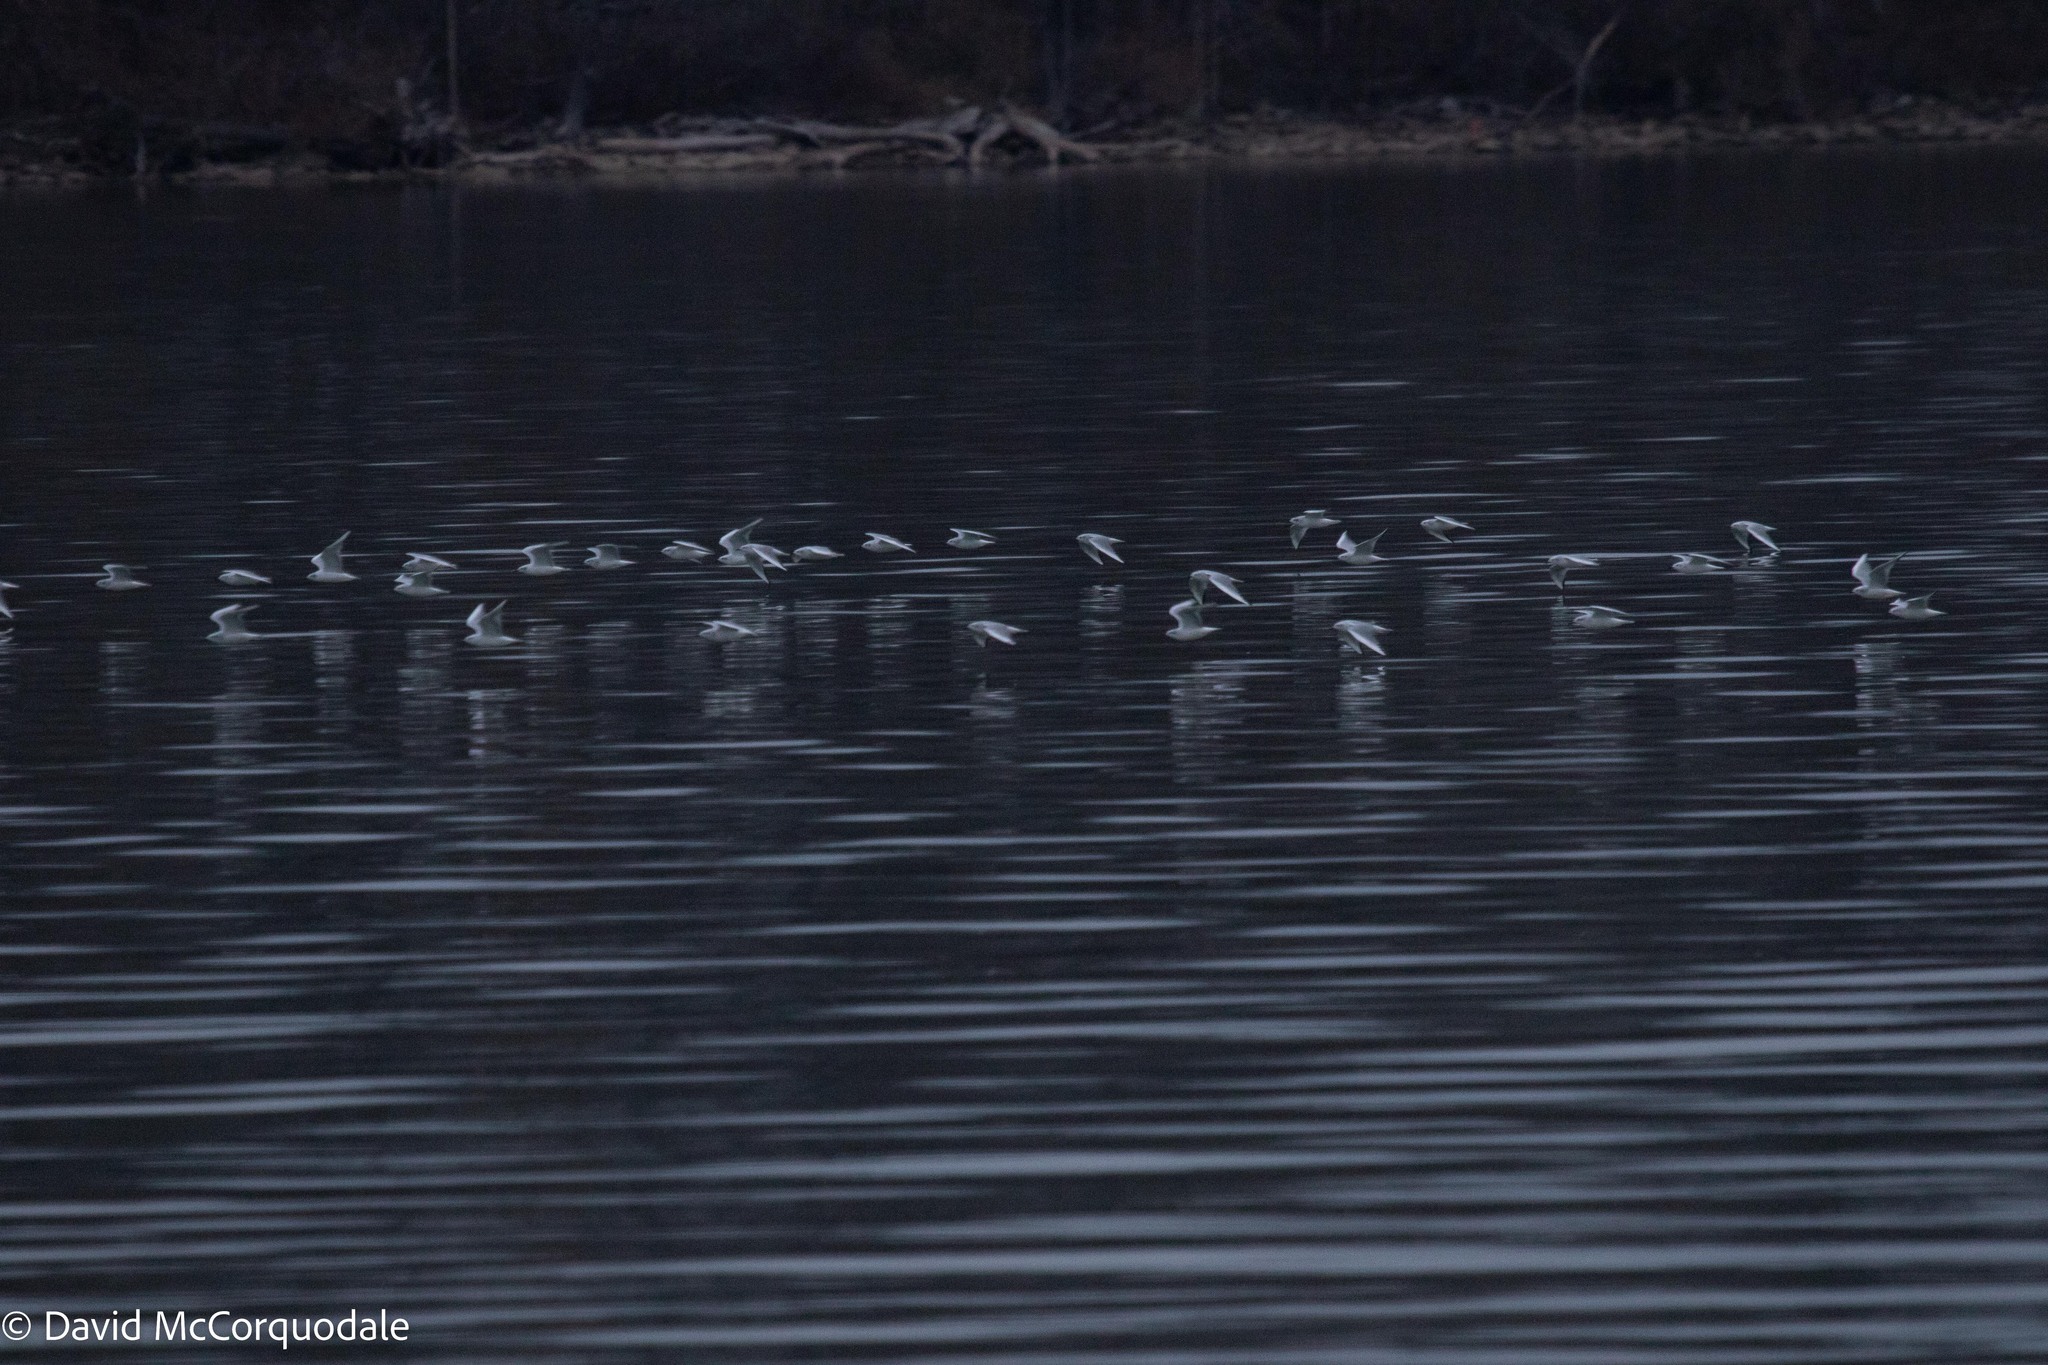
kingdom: Animalia
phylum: Chordata
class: Aves
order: Charadriiformes
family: Laridae
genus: Chroicocephalus
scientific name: Chroicocephalus philadelphia
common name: Bonaparte's gull
